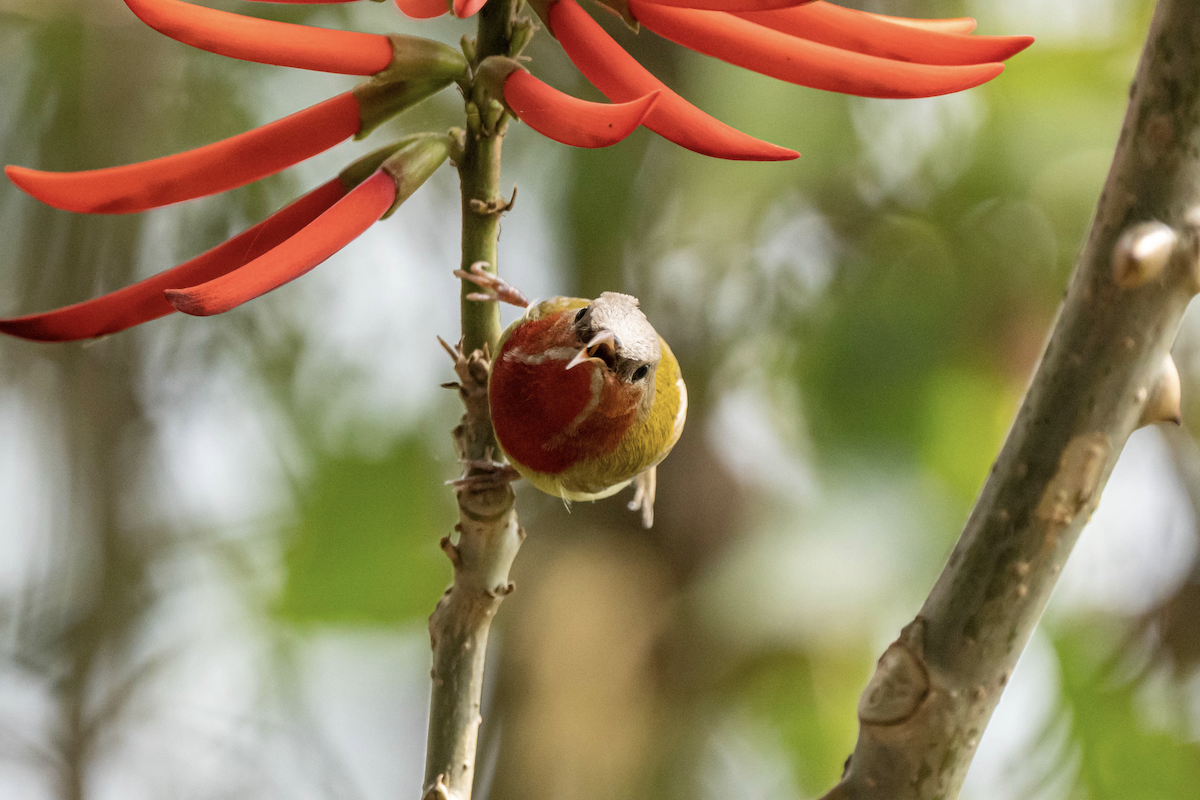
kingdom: Animalia
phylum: Chordata
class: Aves
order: Passeriformes
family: Nectariniidae
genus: Aethopyga
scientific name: Aethopyga christinae
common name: Fork-tailed sunbird
